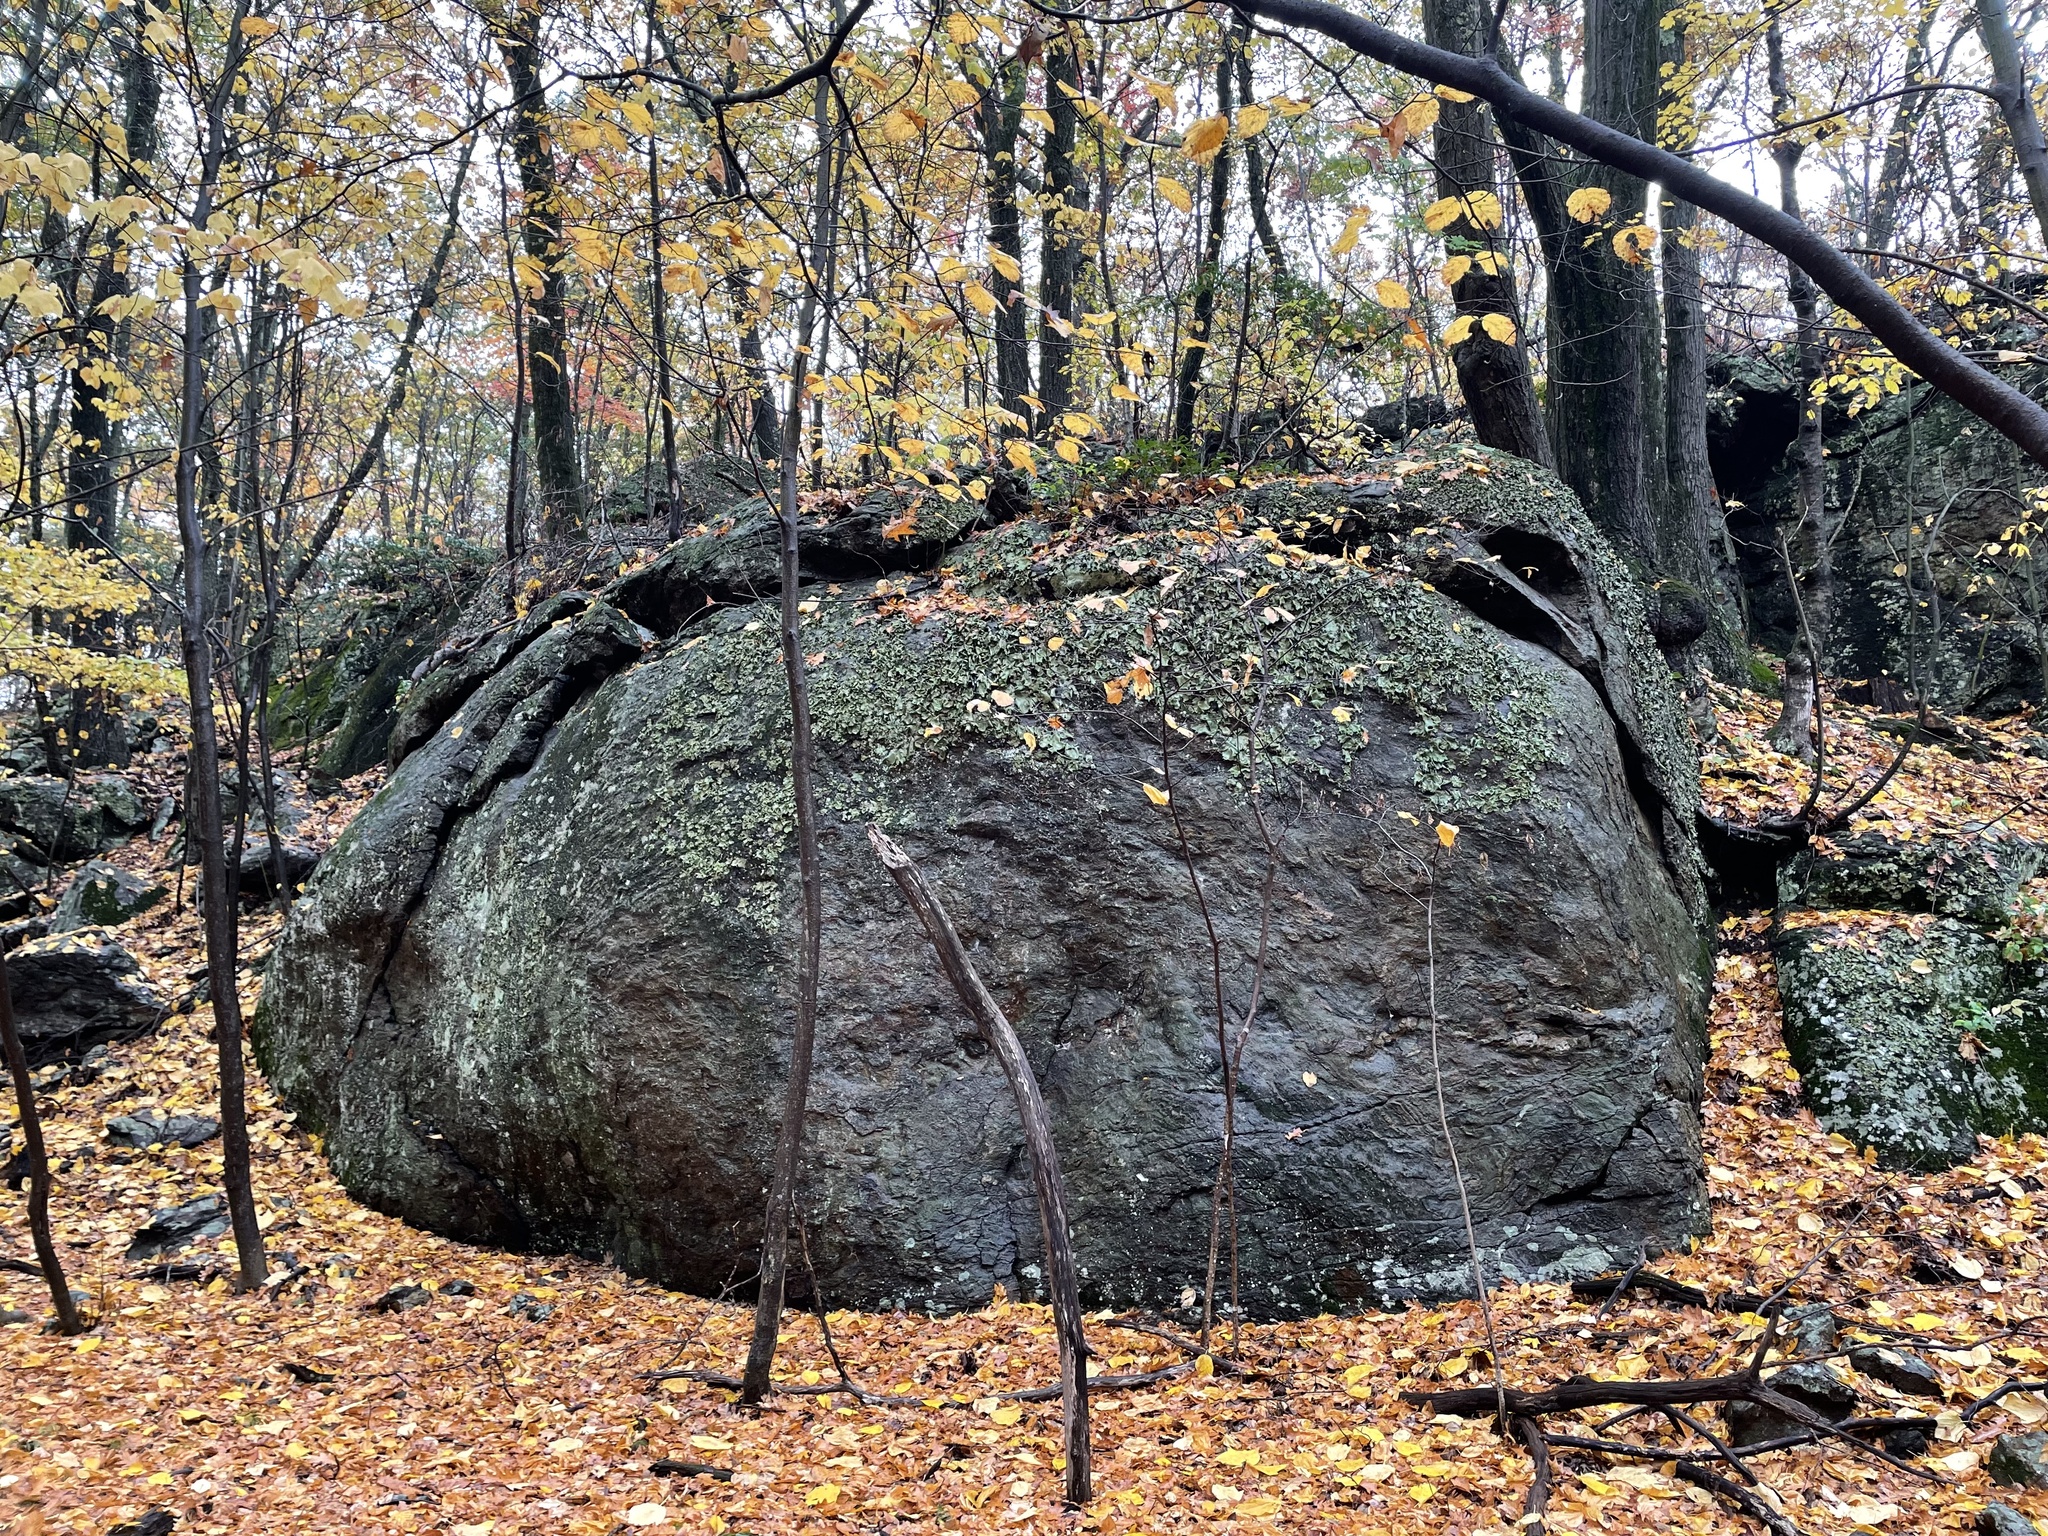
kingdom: Fungi
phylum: Ascomycota
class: Lecanoromycetes
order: Umbilicariales
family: Umbilicariaceae
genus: Umbilicaria
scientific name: Umbilicaria mammulata
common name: Smooth rock tripe
